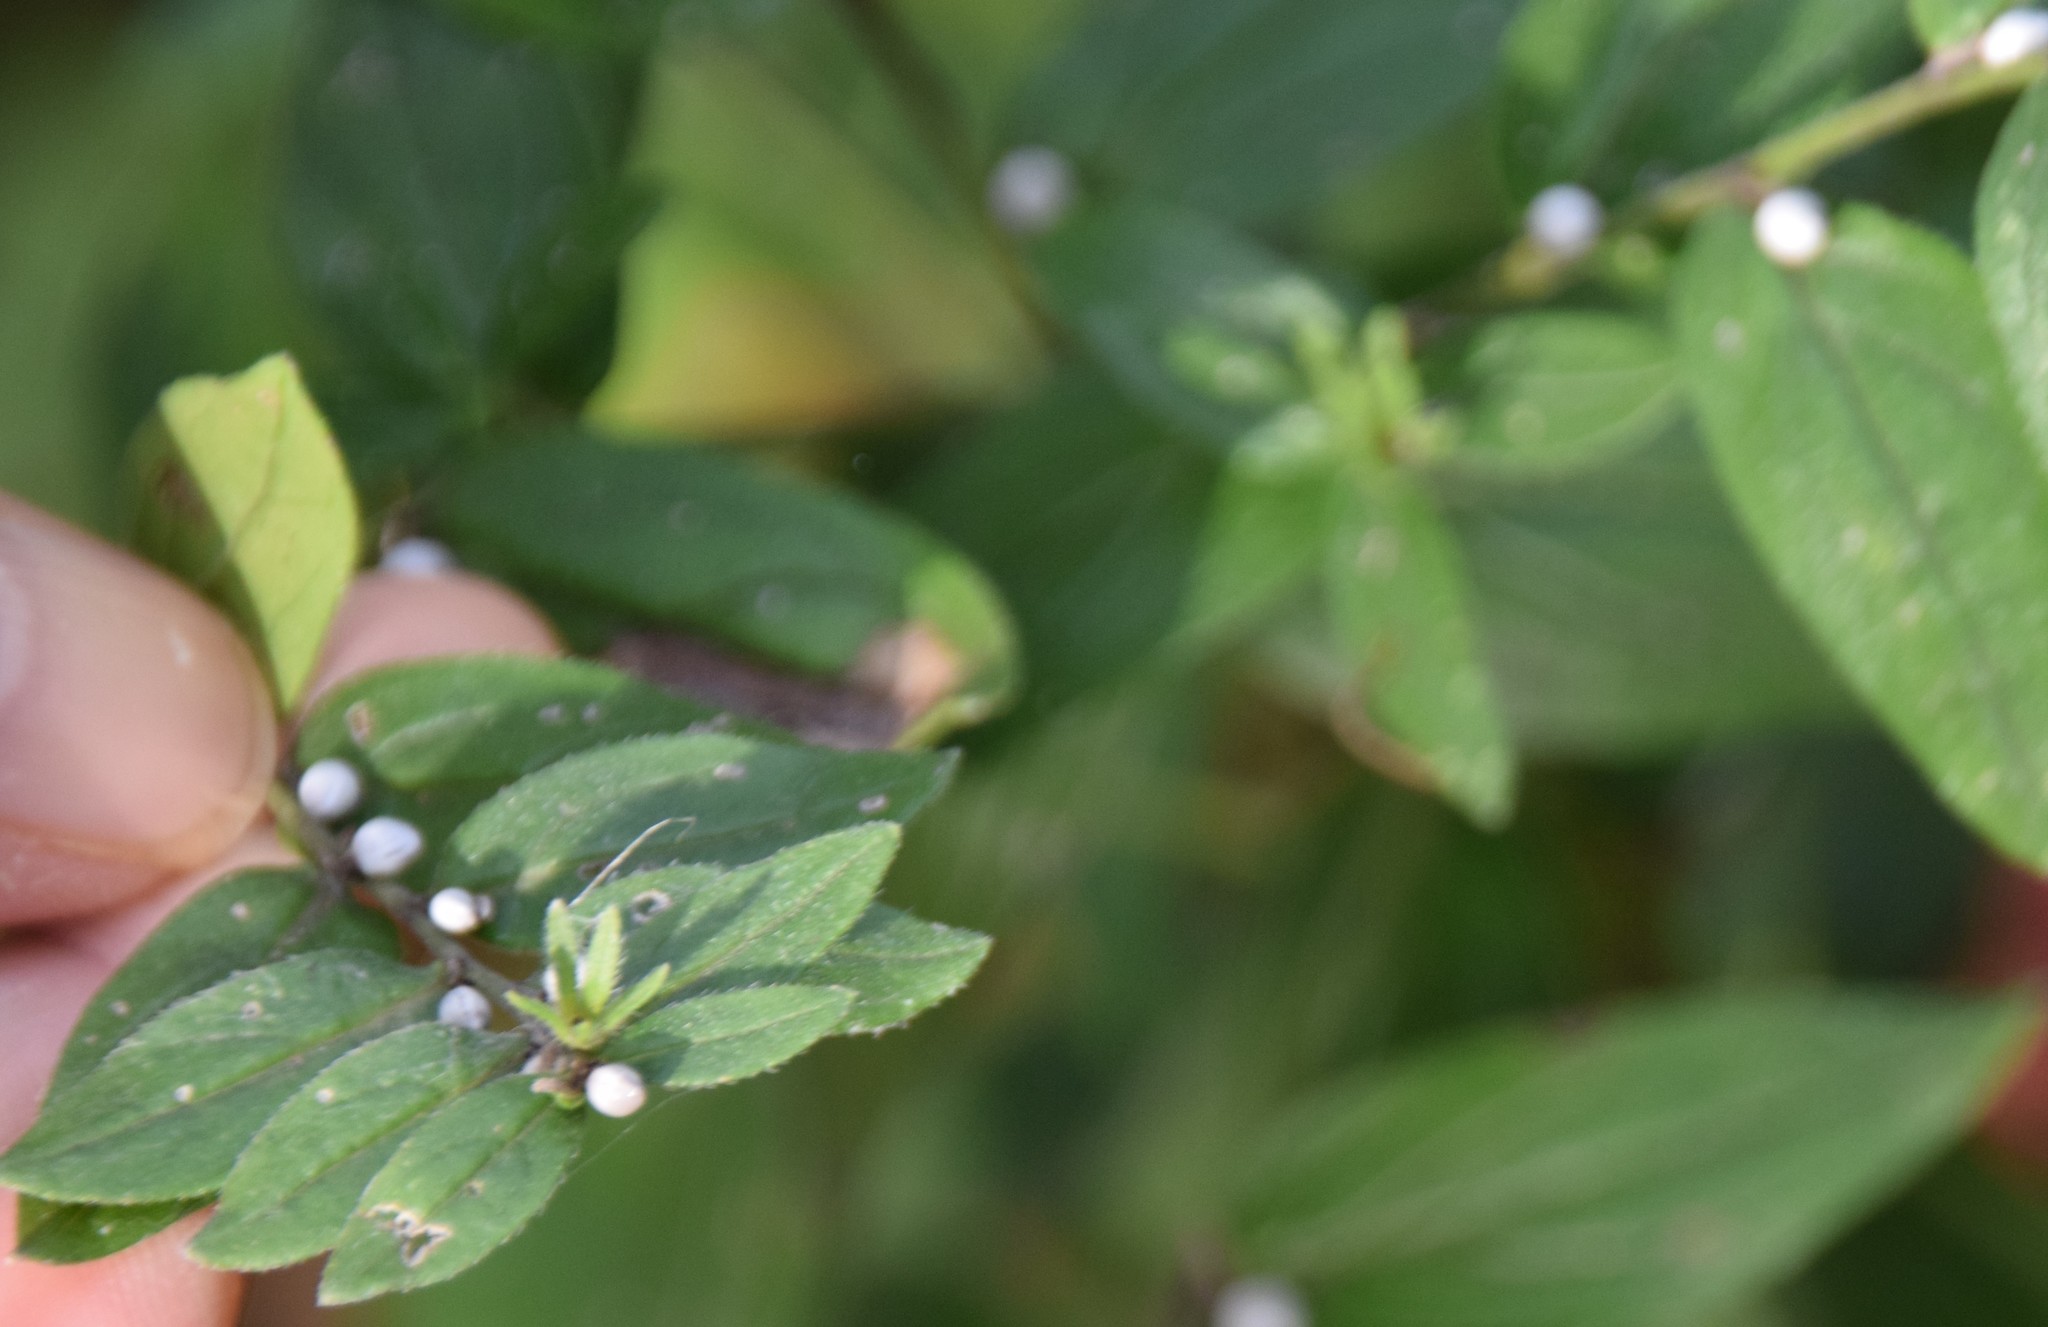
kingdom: Plantae
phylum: Tracheophyta
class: Magnoliopsida
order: Boraginales
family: Boraginaceae
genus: Lithospermum
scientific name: Lithospermum officinale
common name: Common gromwell
